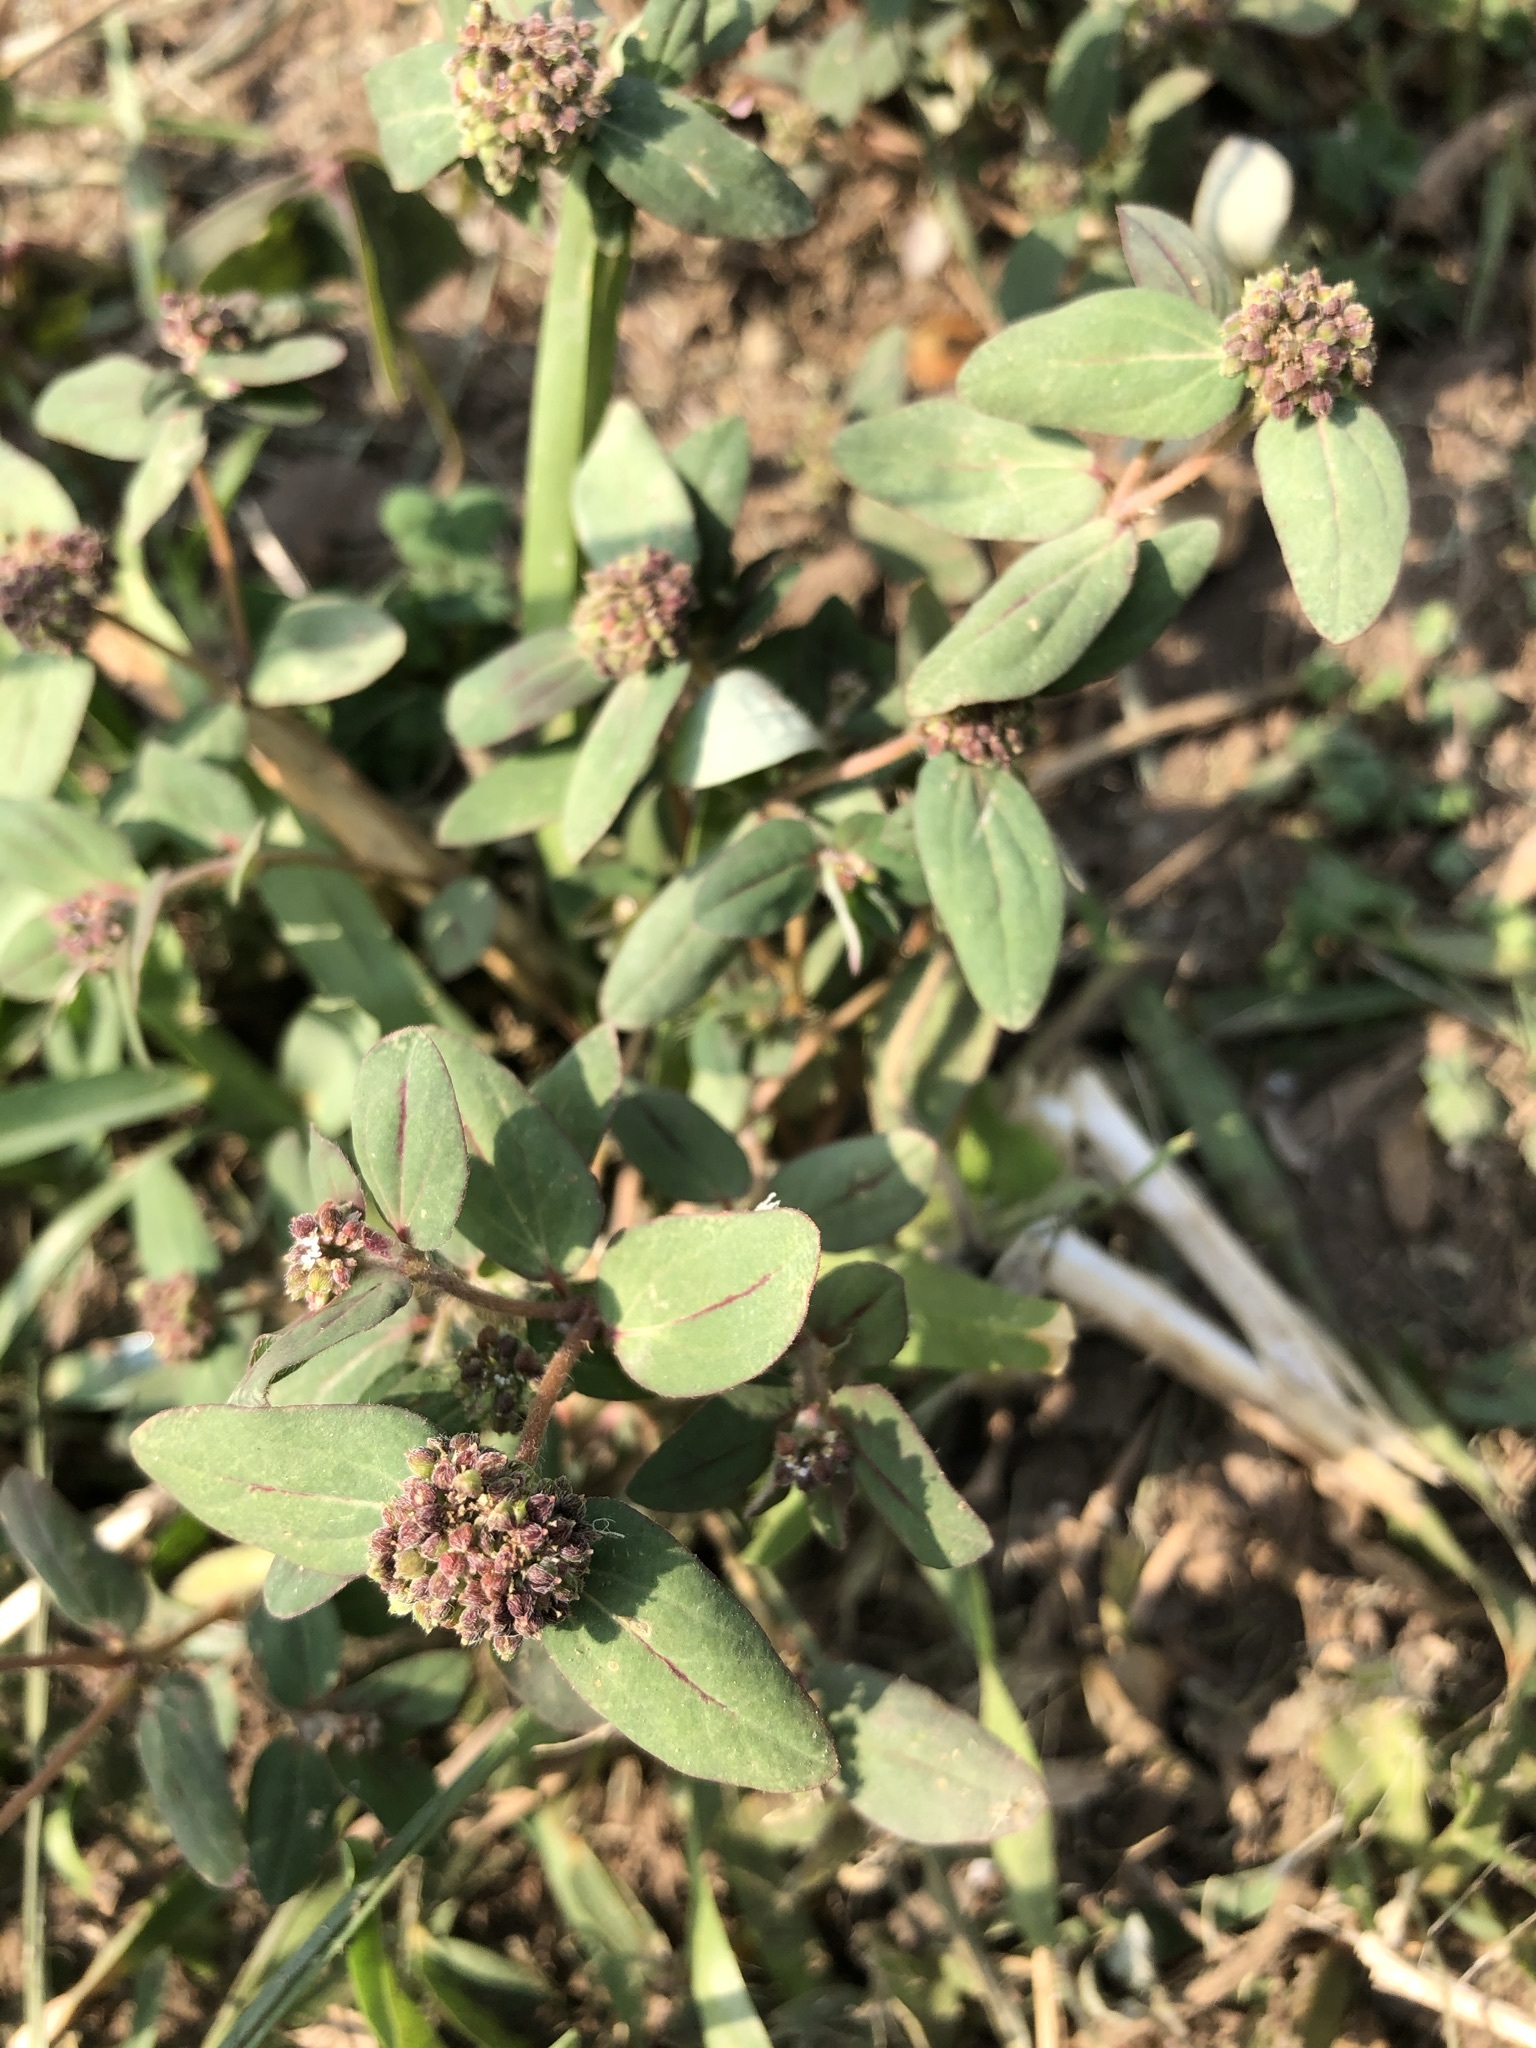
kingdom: Plantae
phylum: Tracheophyta
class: Magnoliopsida
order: Malpighiales
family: Euphorbiaceae
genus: Euphorbia
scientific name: Euphorbia ophthalmica
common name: Florida hammock sandmat
